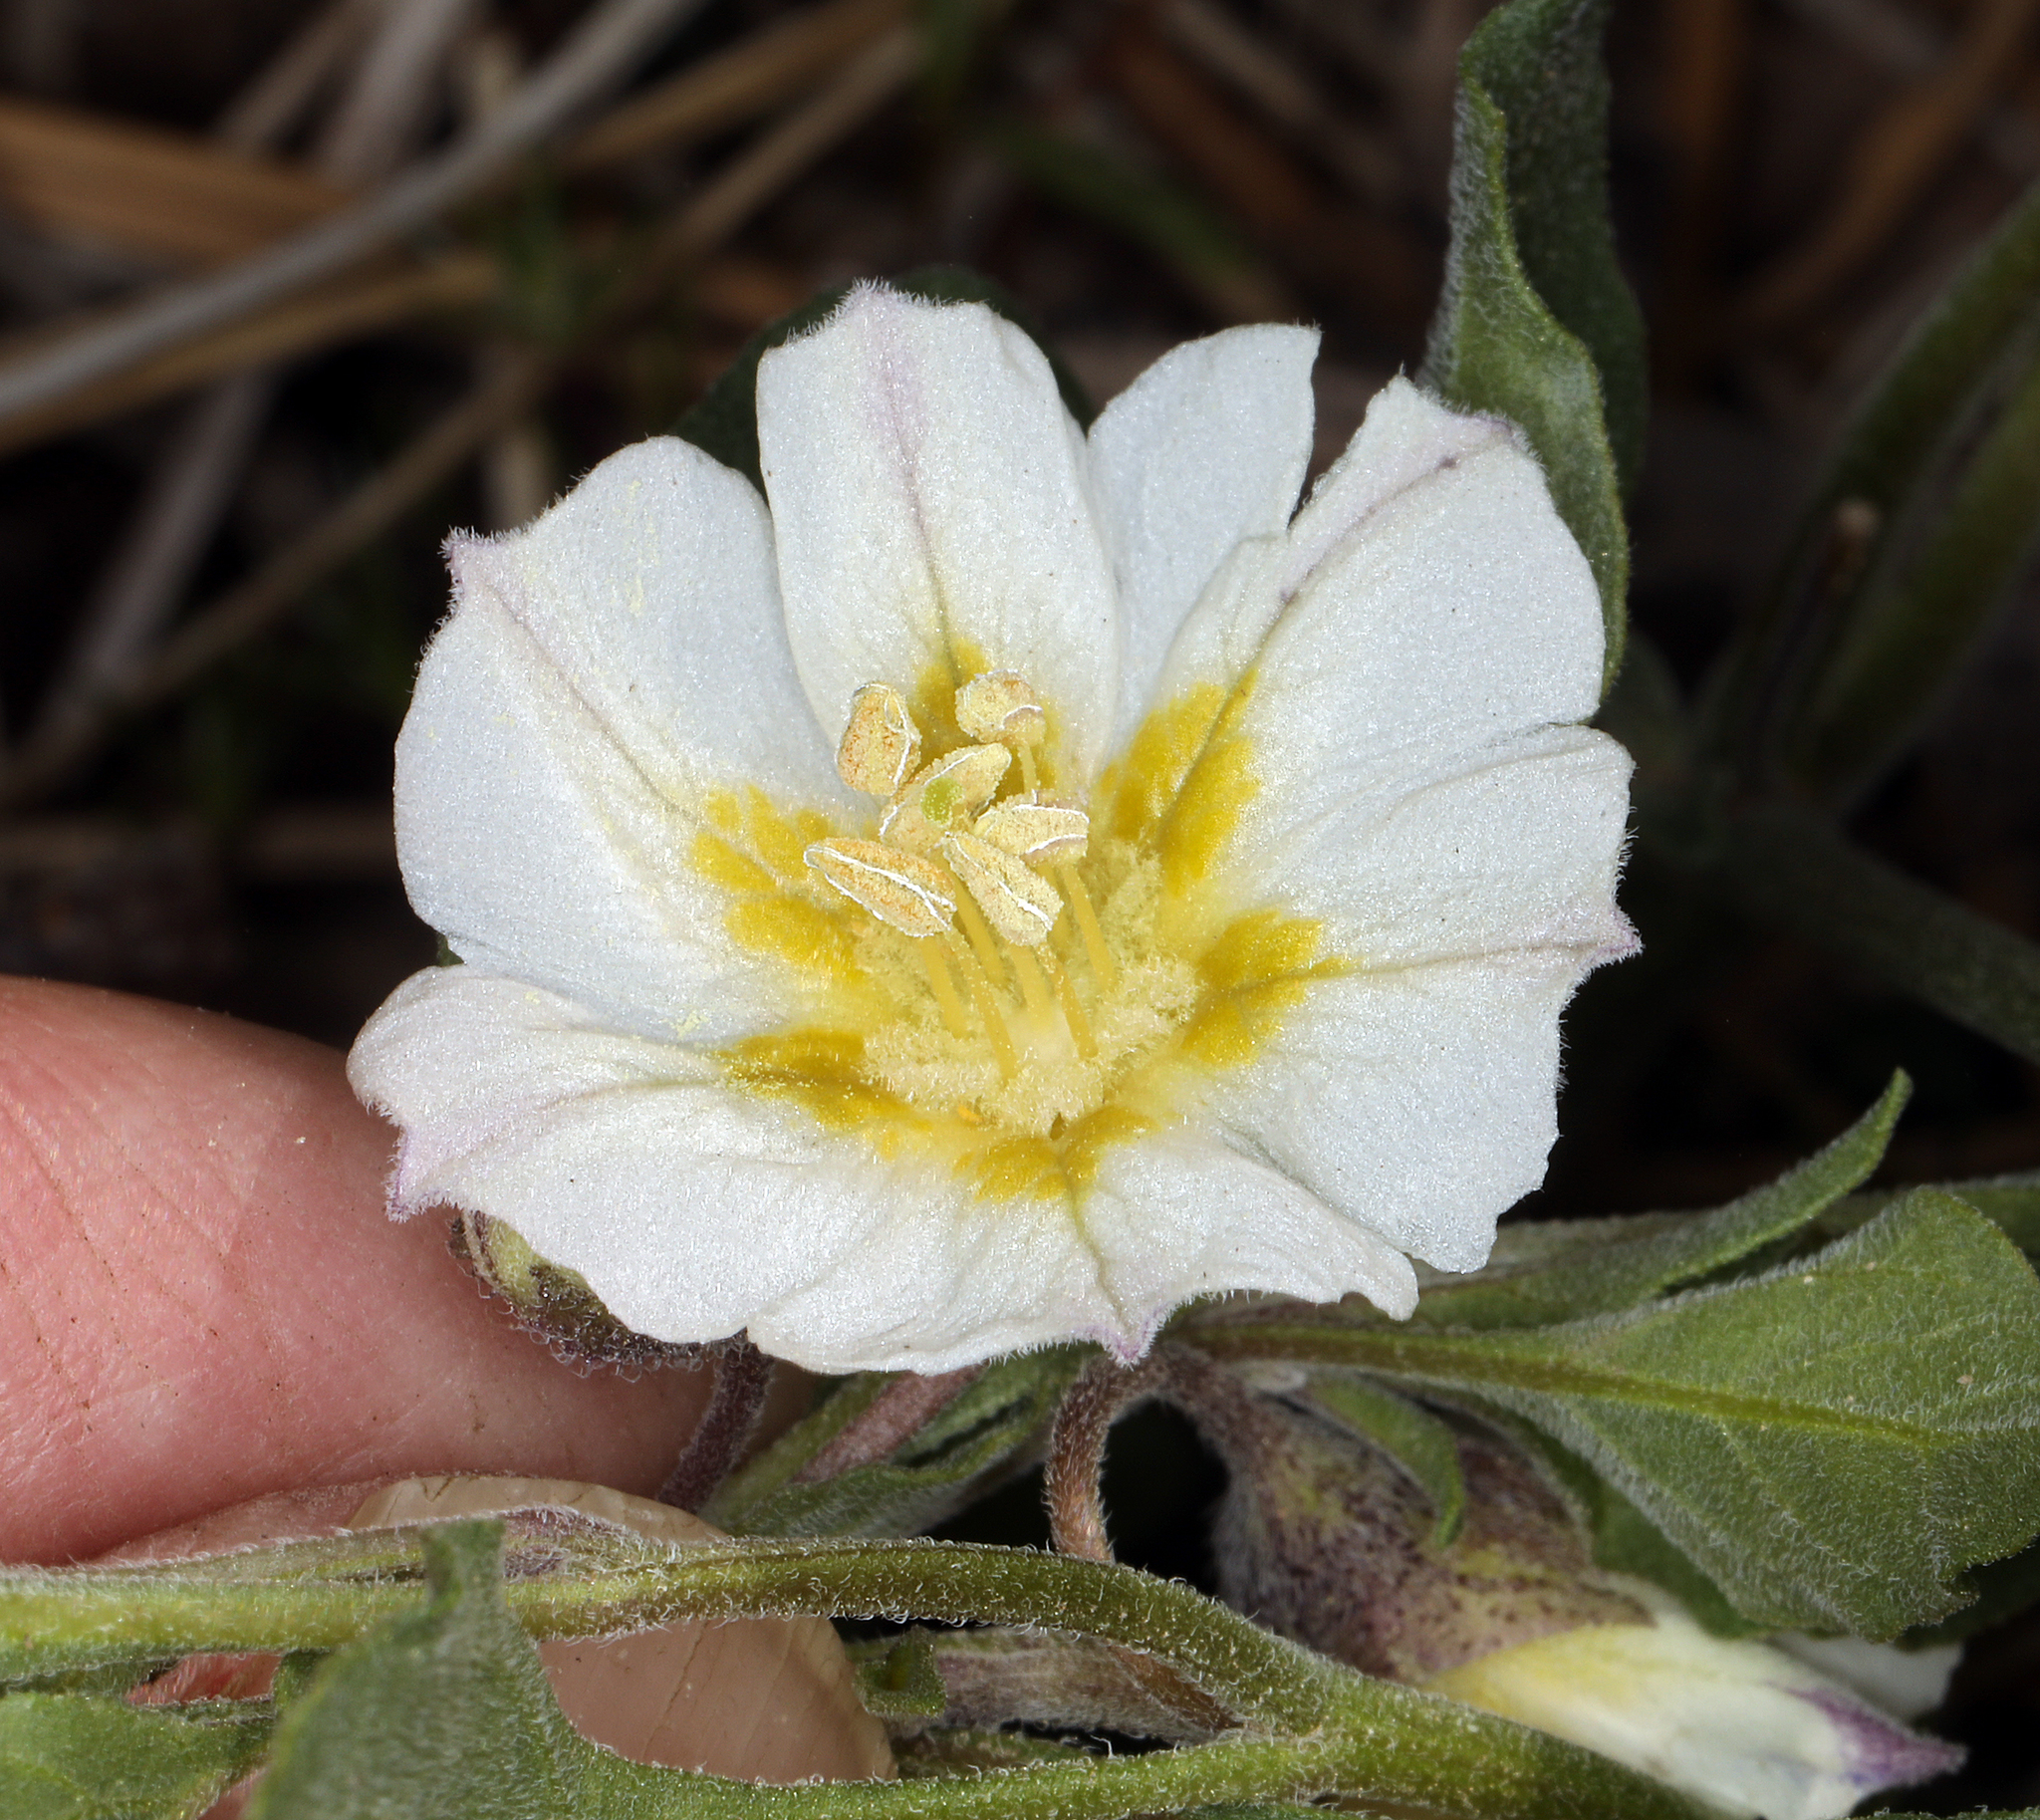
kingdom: Plantae
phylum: Tracheophyta
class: Magnoliopsida
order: Solanales
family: Solanaceae
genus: Leucophysalis
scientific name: Leucophysalis nana
